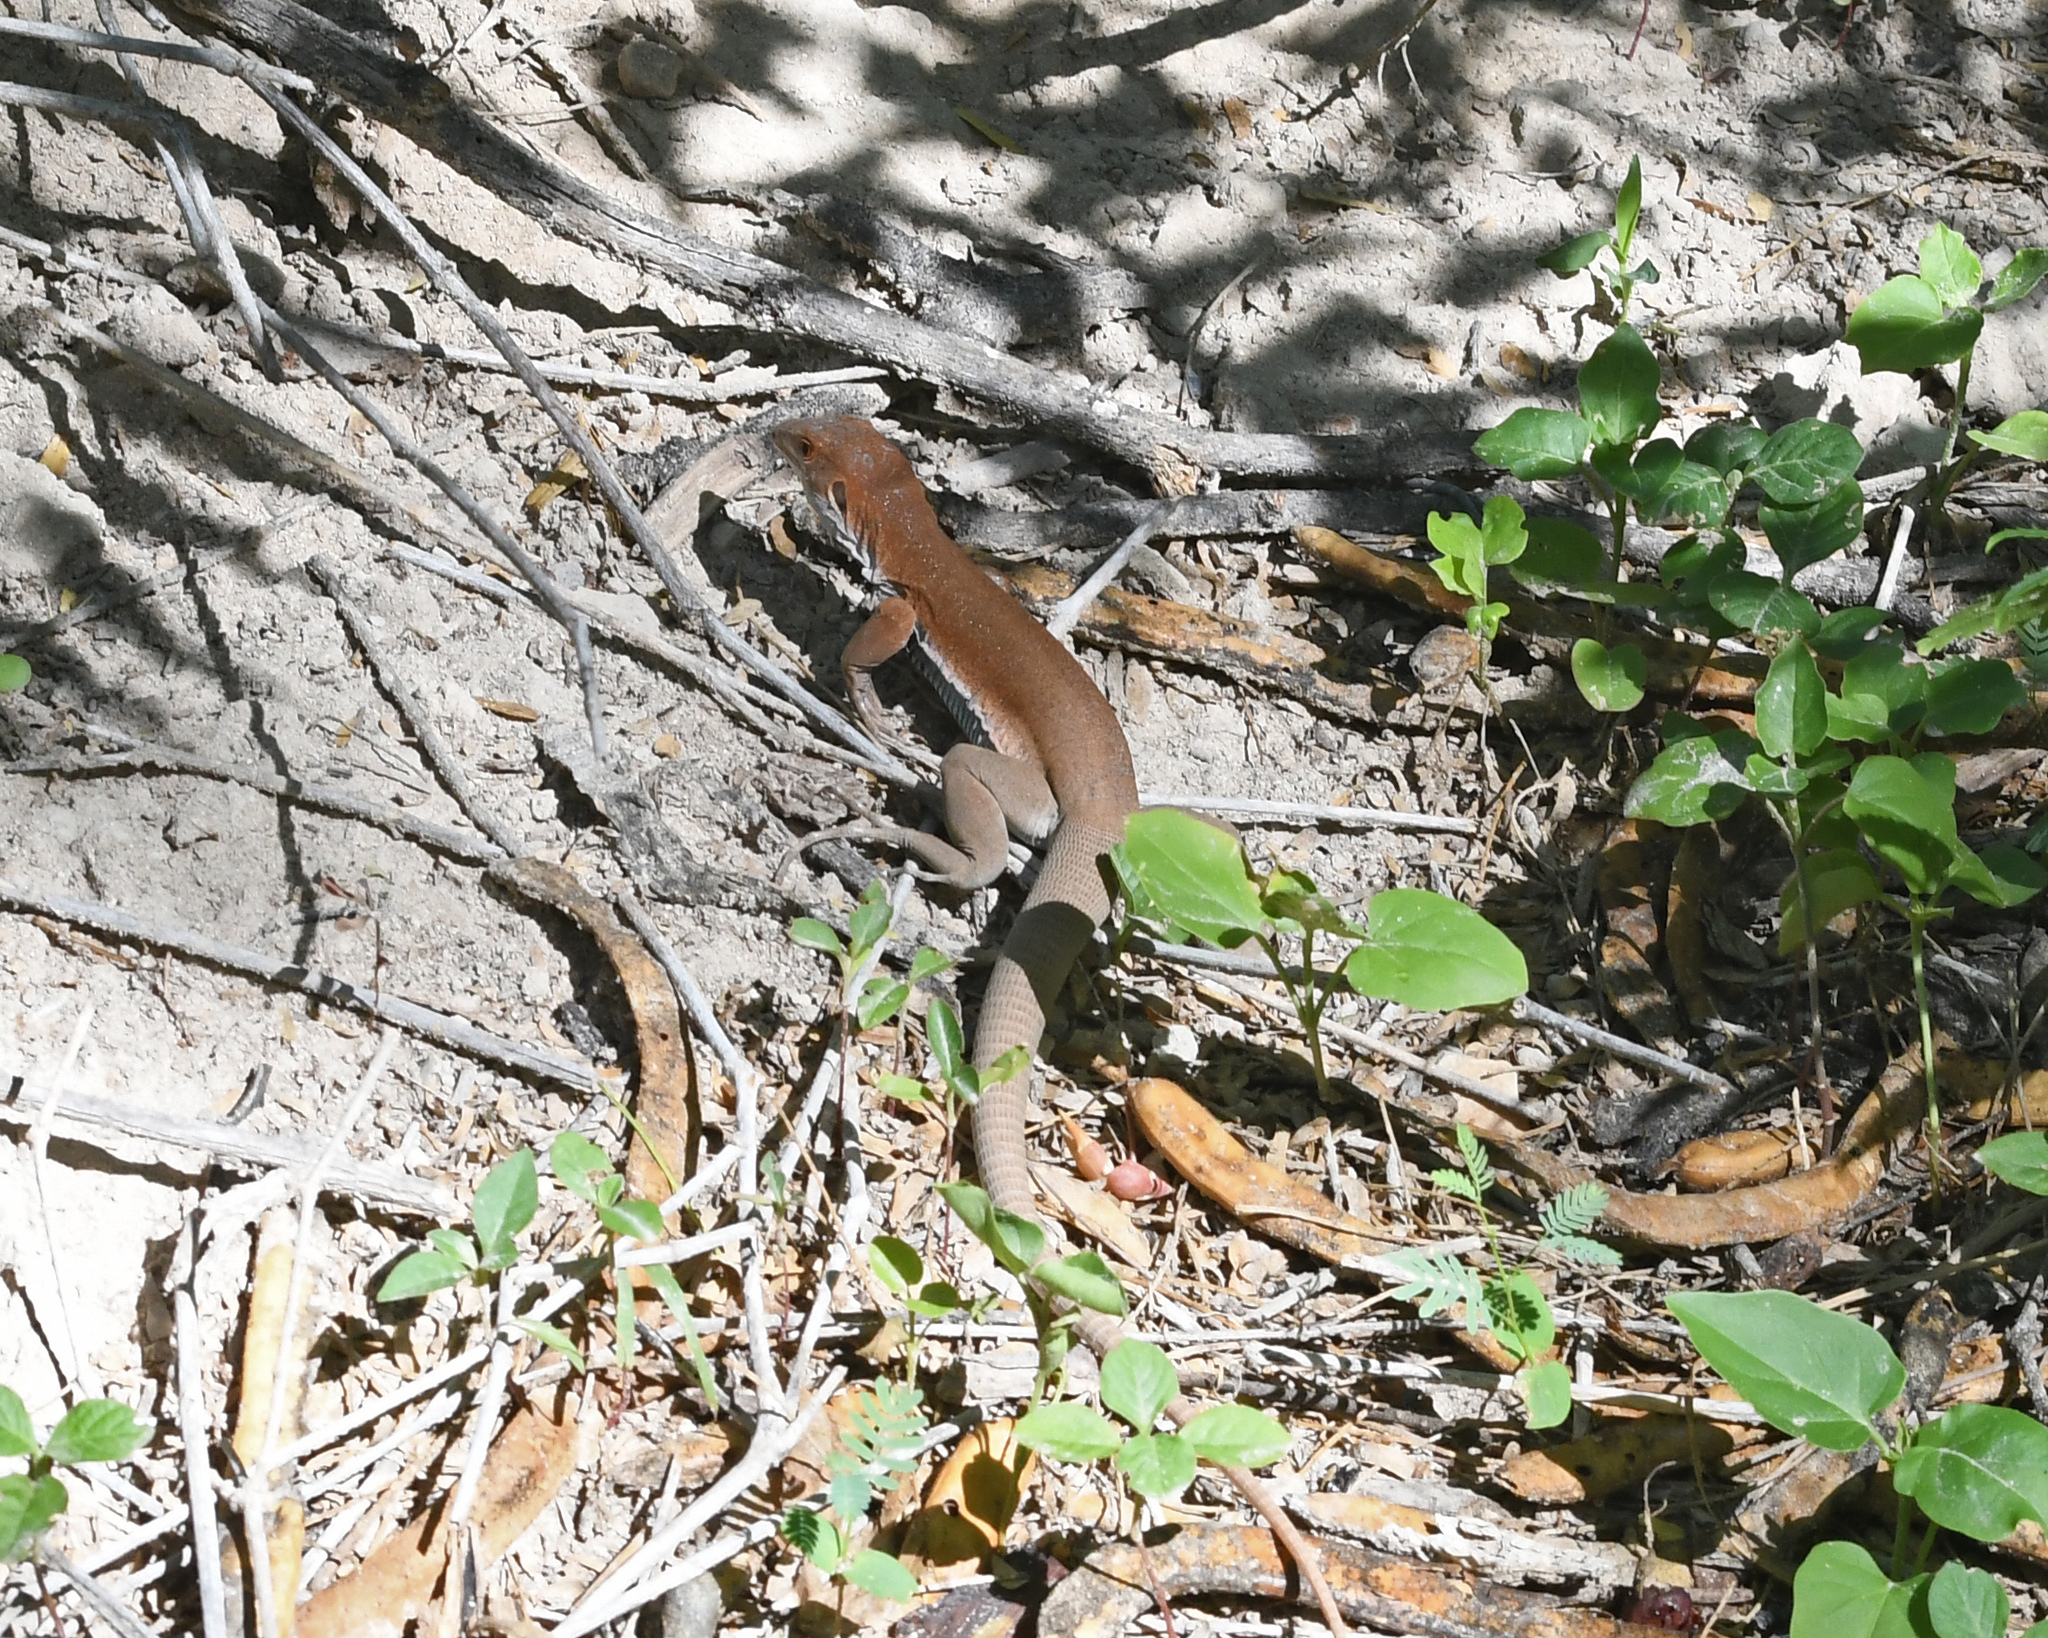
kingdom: Animalia
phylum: Chordata
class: Squamata
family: Teiidae
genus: Pholidoscelis
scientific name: Pholidoscelis chrysolaemus
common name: Common ameiva
